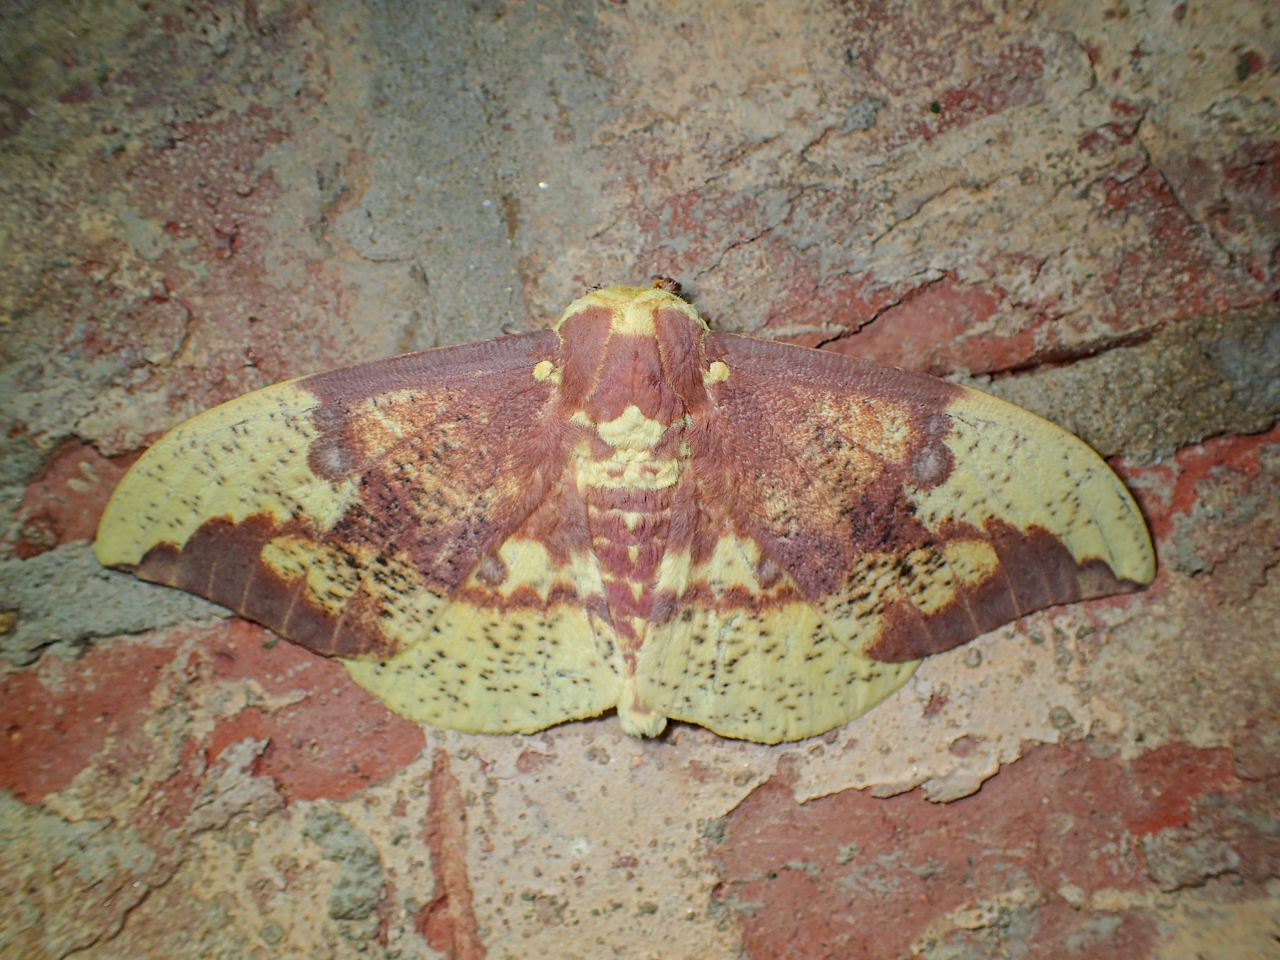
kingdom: Animalia
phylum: Arthropoda
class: Insecta
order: Lepidoptera
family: Saturniidae
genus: Eacles
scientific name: Eacles imperialis
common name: Imperial moth
